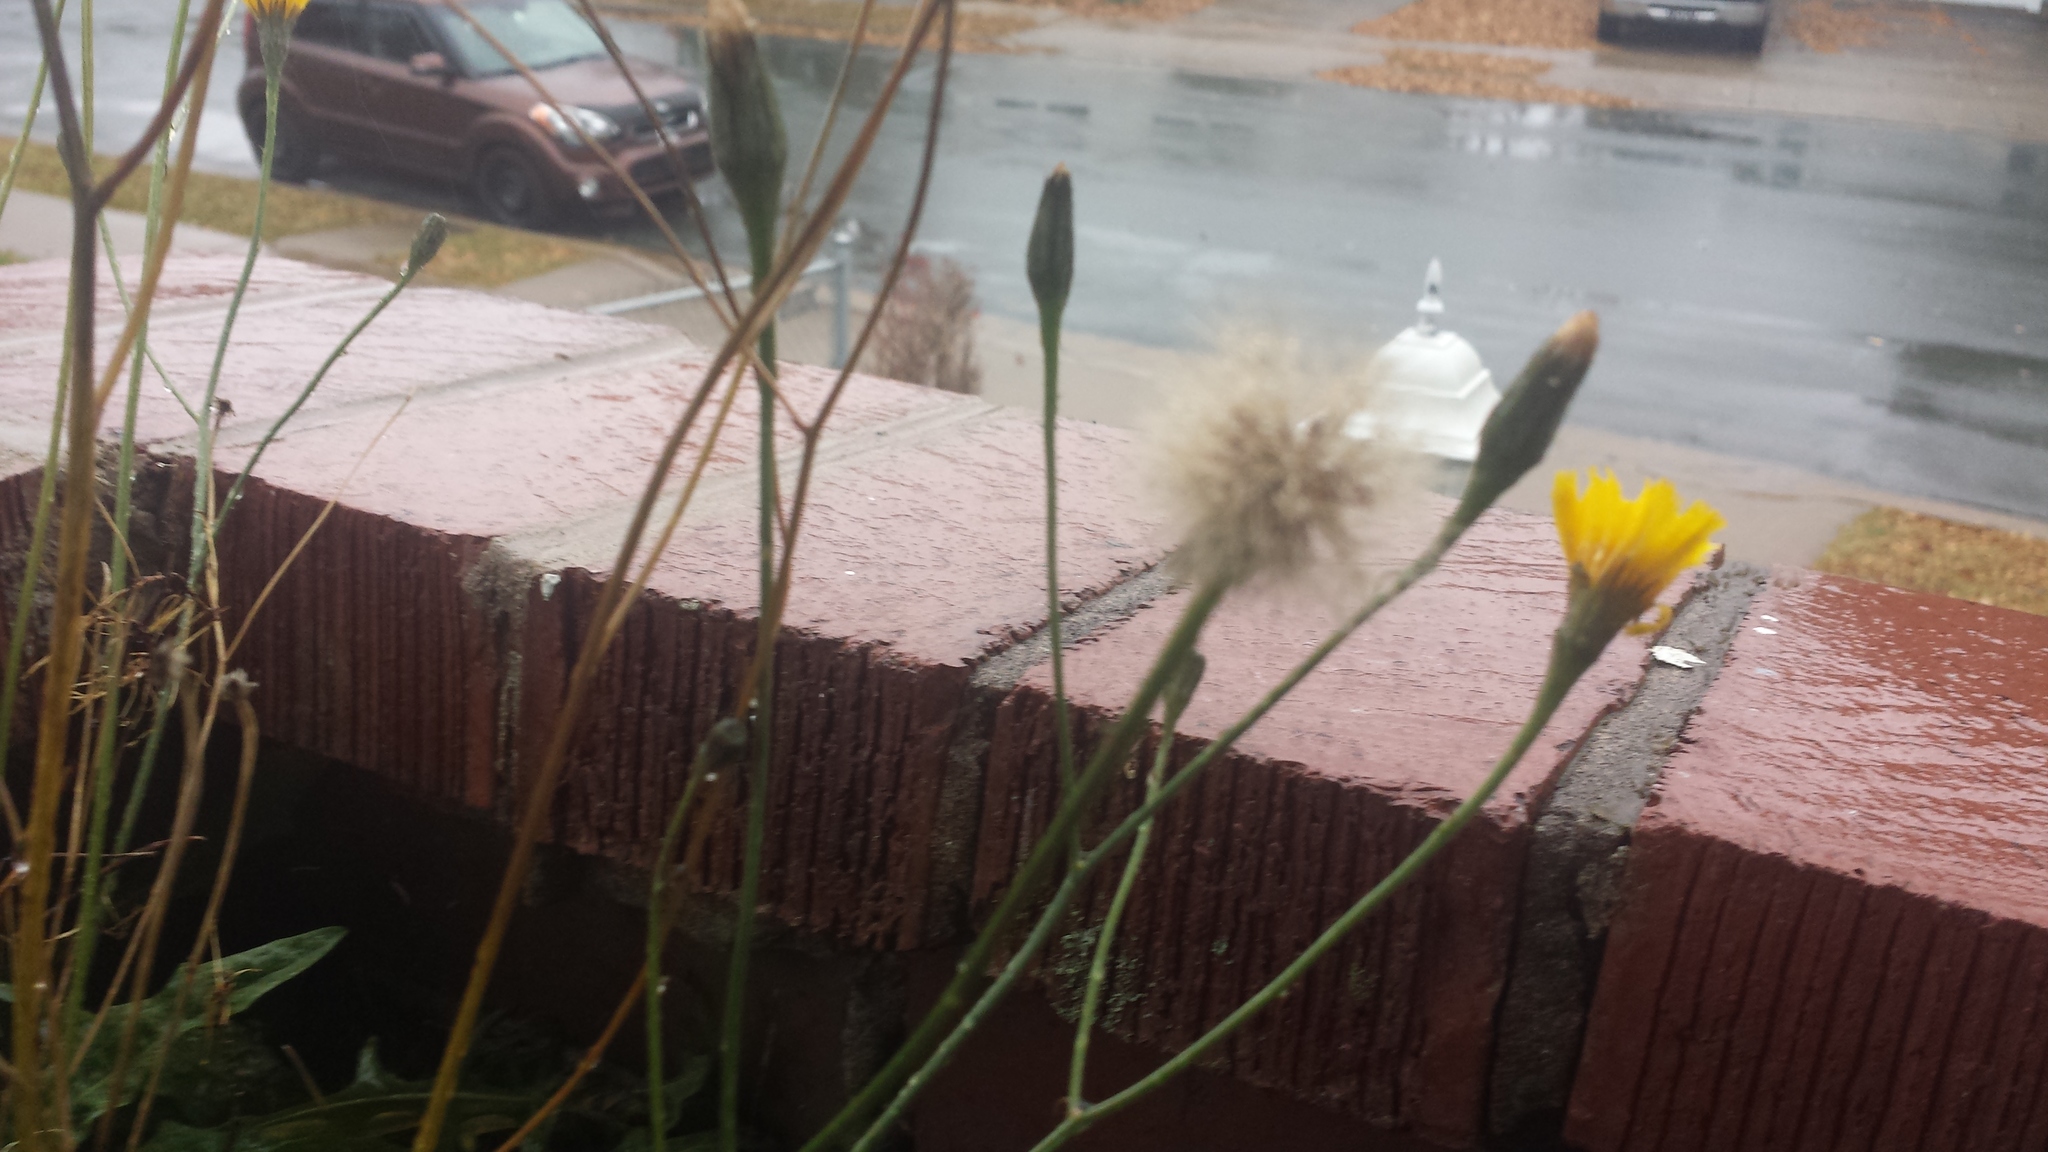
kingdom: Plantae
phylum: Tracheophyta
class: Magnoliopsida
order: Asterales
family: Asteraceae
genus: Scorzoneroides
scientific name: Scorzoneroides autumnalis
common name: Autumn hawkbit
